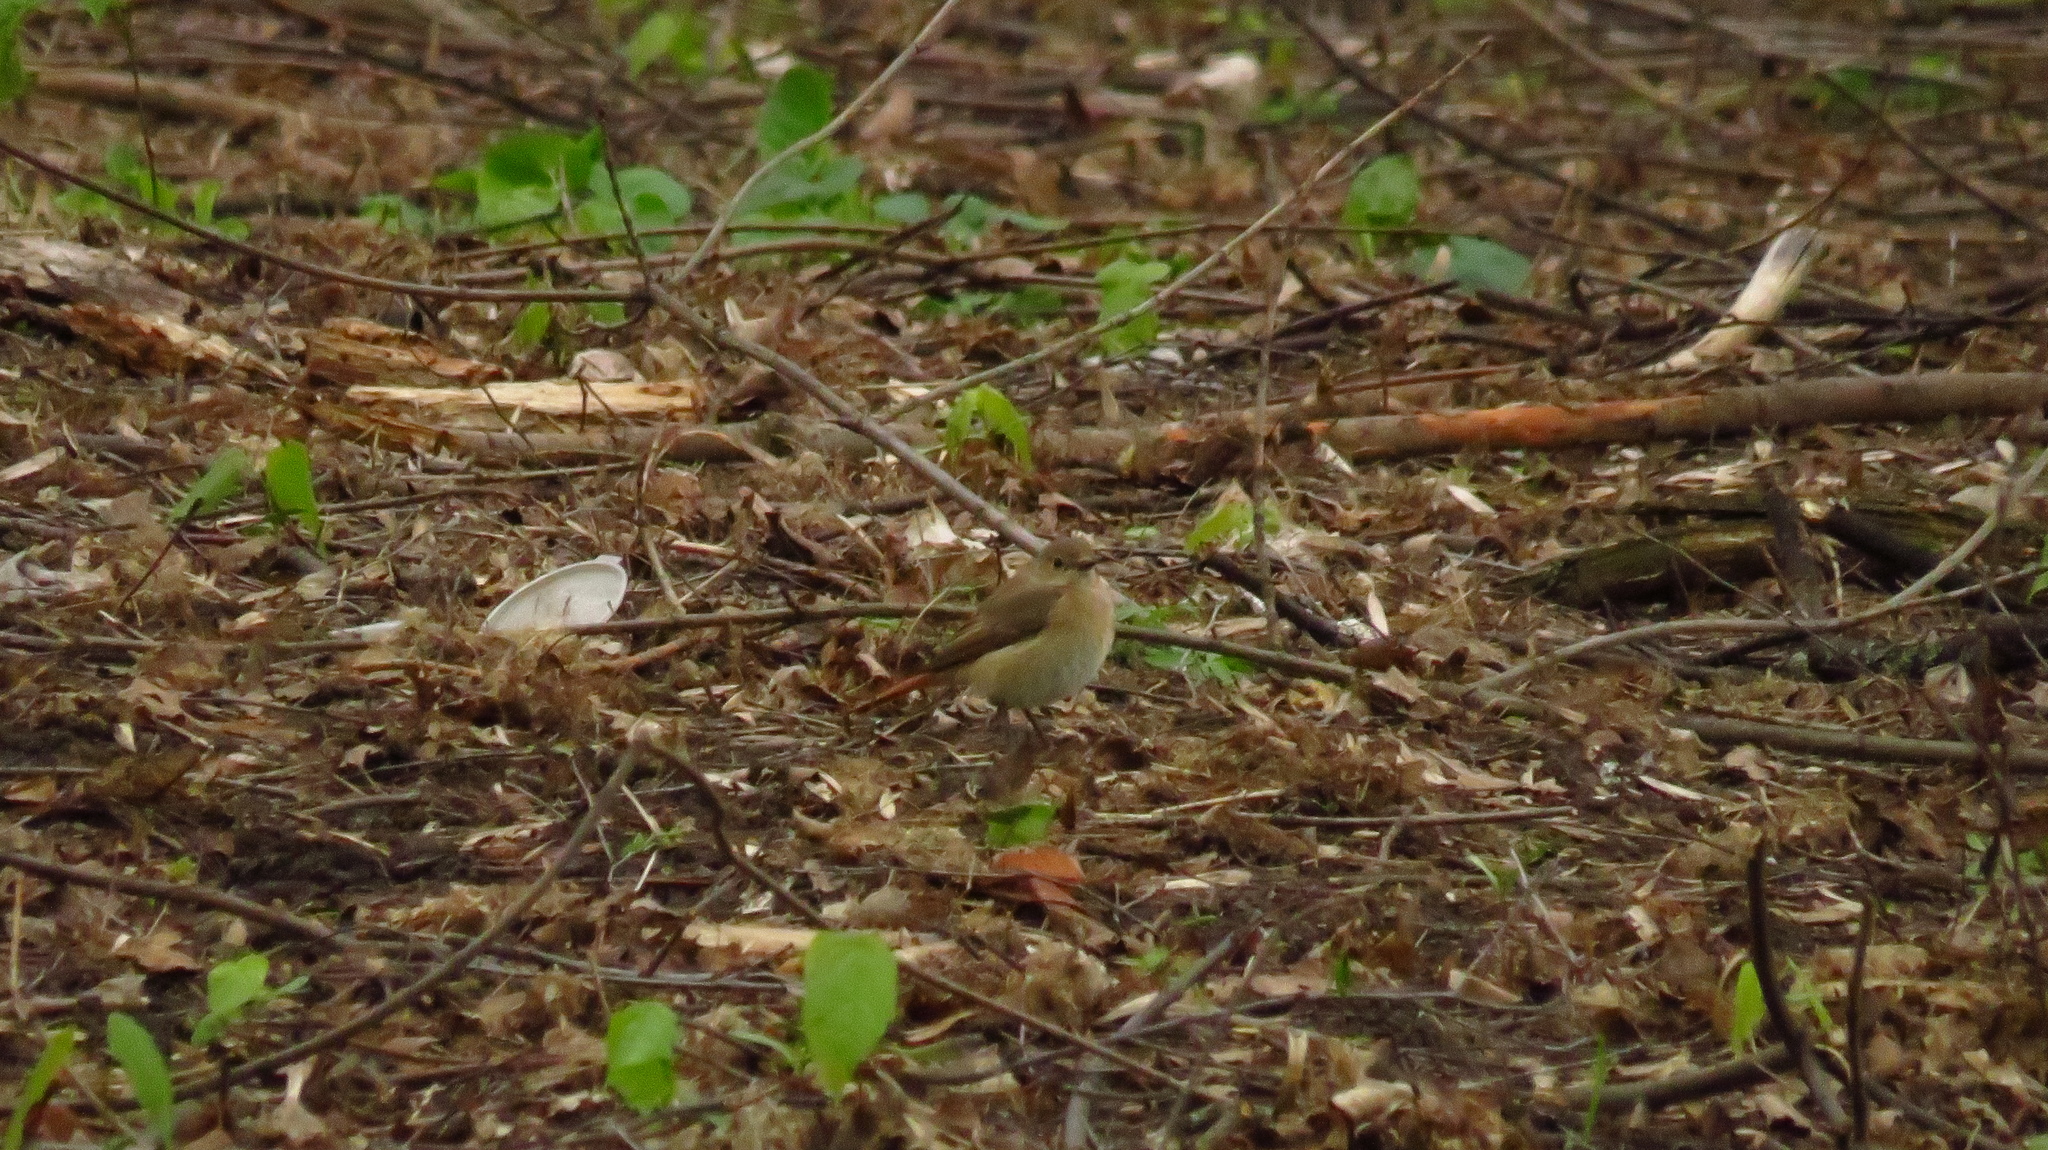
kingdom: Animalia
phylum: Chordata
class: Aves
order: Passeriformes
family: Muscicapidae
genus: Phoenicurus
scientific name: Phoenicurus phoenicurus
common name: Common redstart
